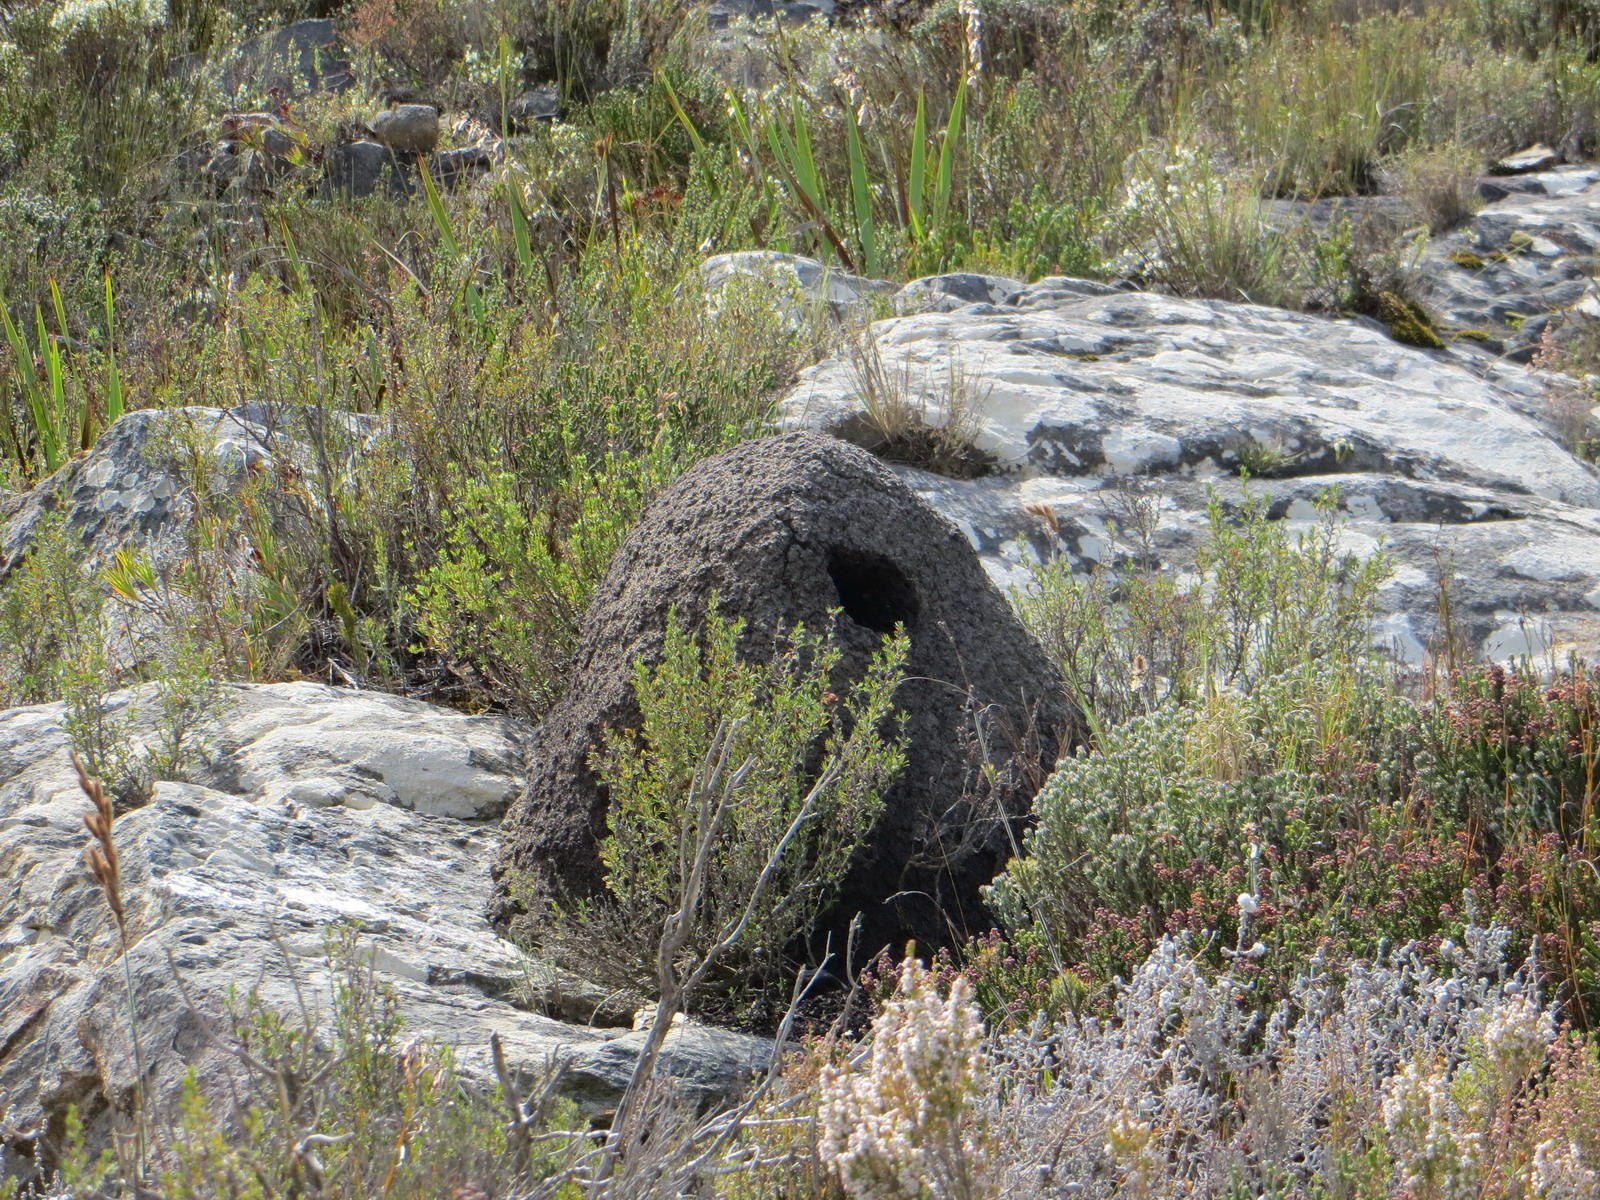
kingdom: Animalia
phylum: Arthropoda
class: Insecta
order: Blattodea
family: Termitidae
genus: Amitermes
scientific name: Amitermes hastatus
